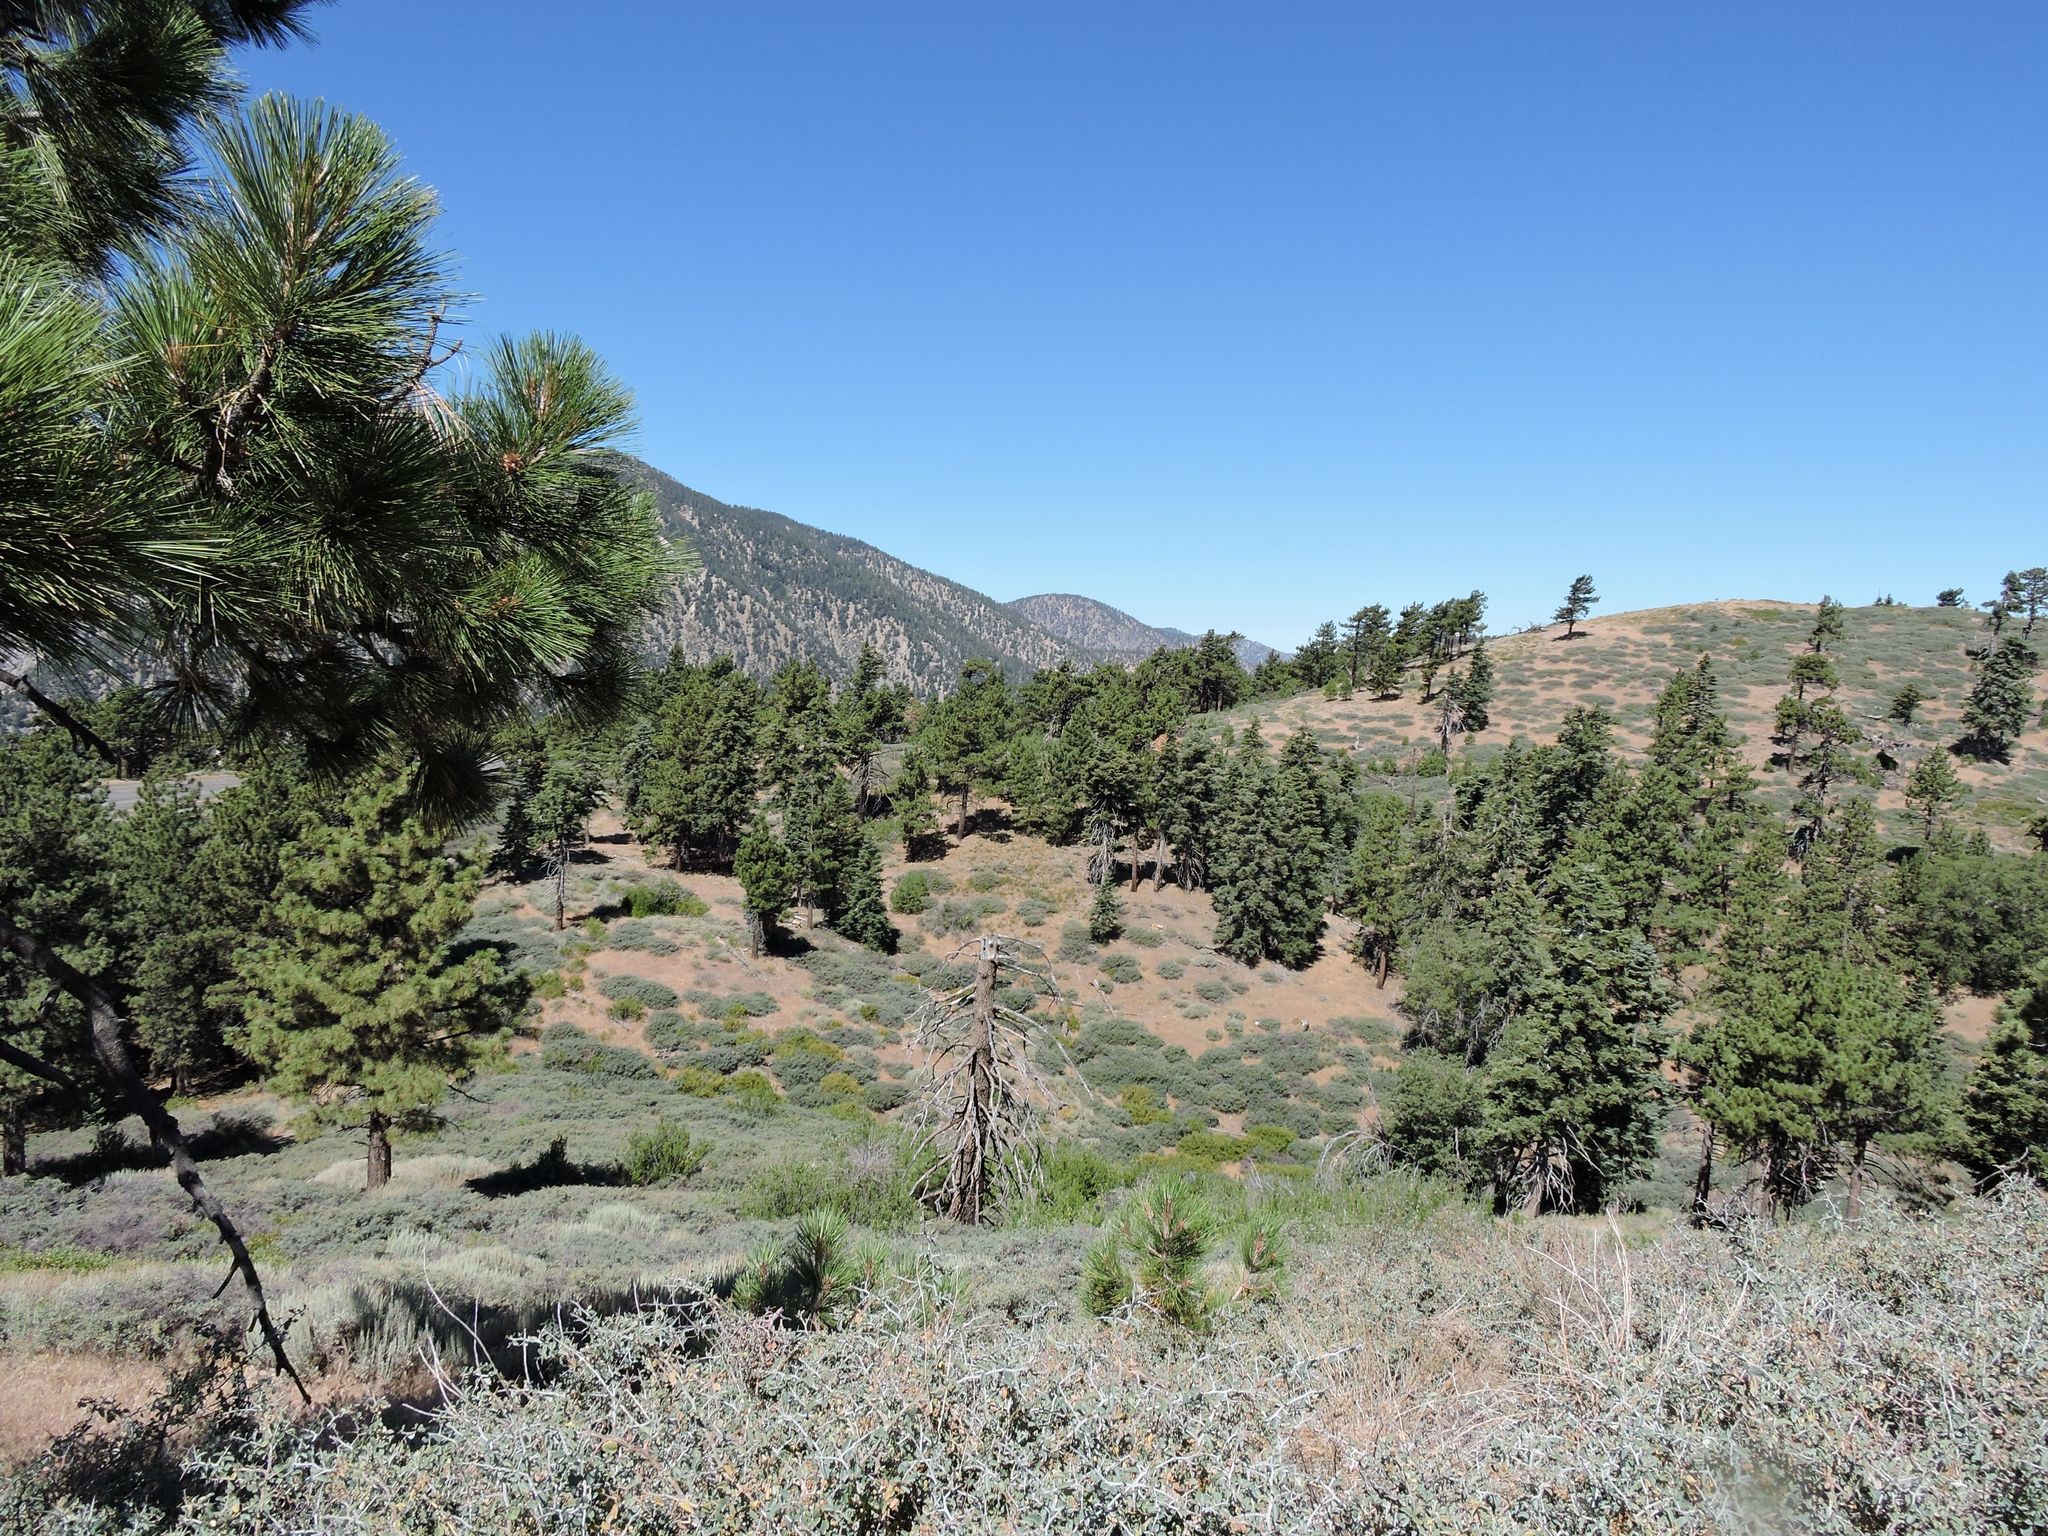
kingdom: Animalia
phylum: Chordata
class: Aves
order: Passeriformes
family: Cardinalidae
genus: Piranga
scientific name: Piranga ludoviciana
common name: Western tanager
